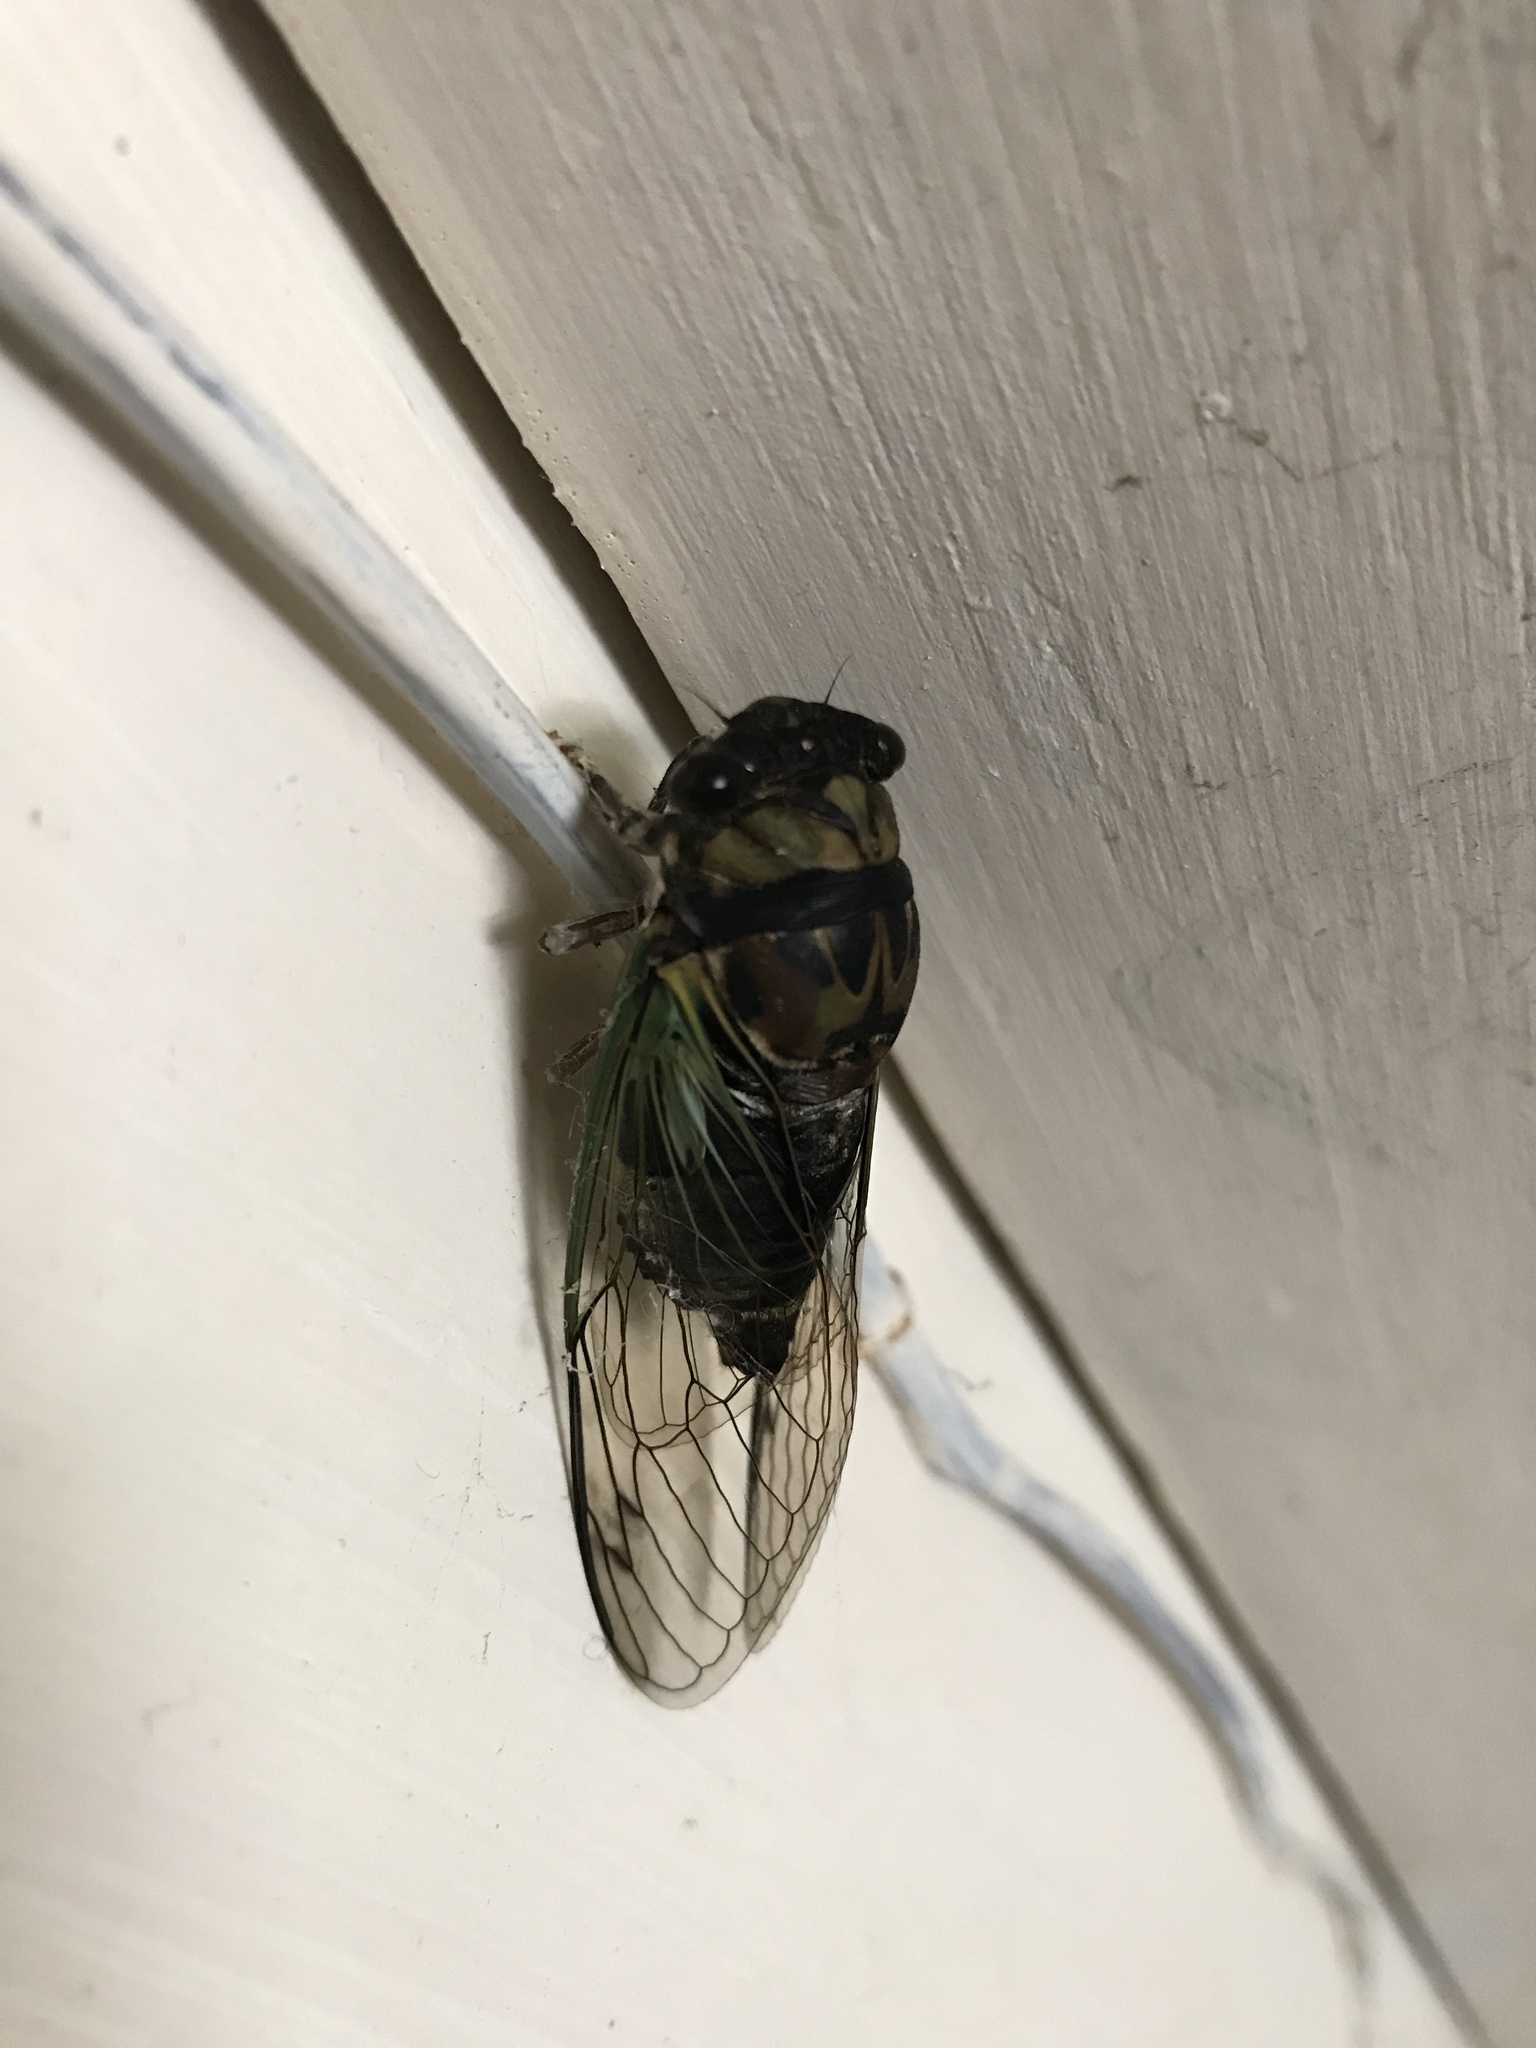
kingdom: Animalia
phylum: Arthropoda
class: Insecta
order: Hemiptera
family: Cicadidae
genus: Neotibicen
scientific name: Neotibicen lyricen
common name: Lyric cicada
